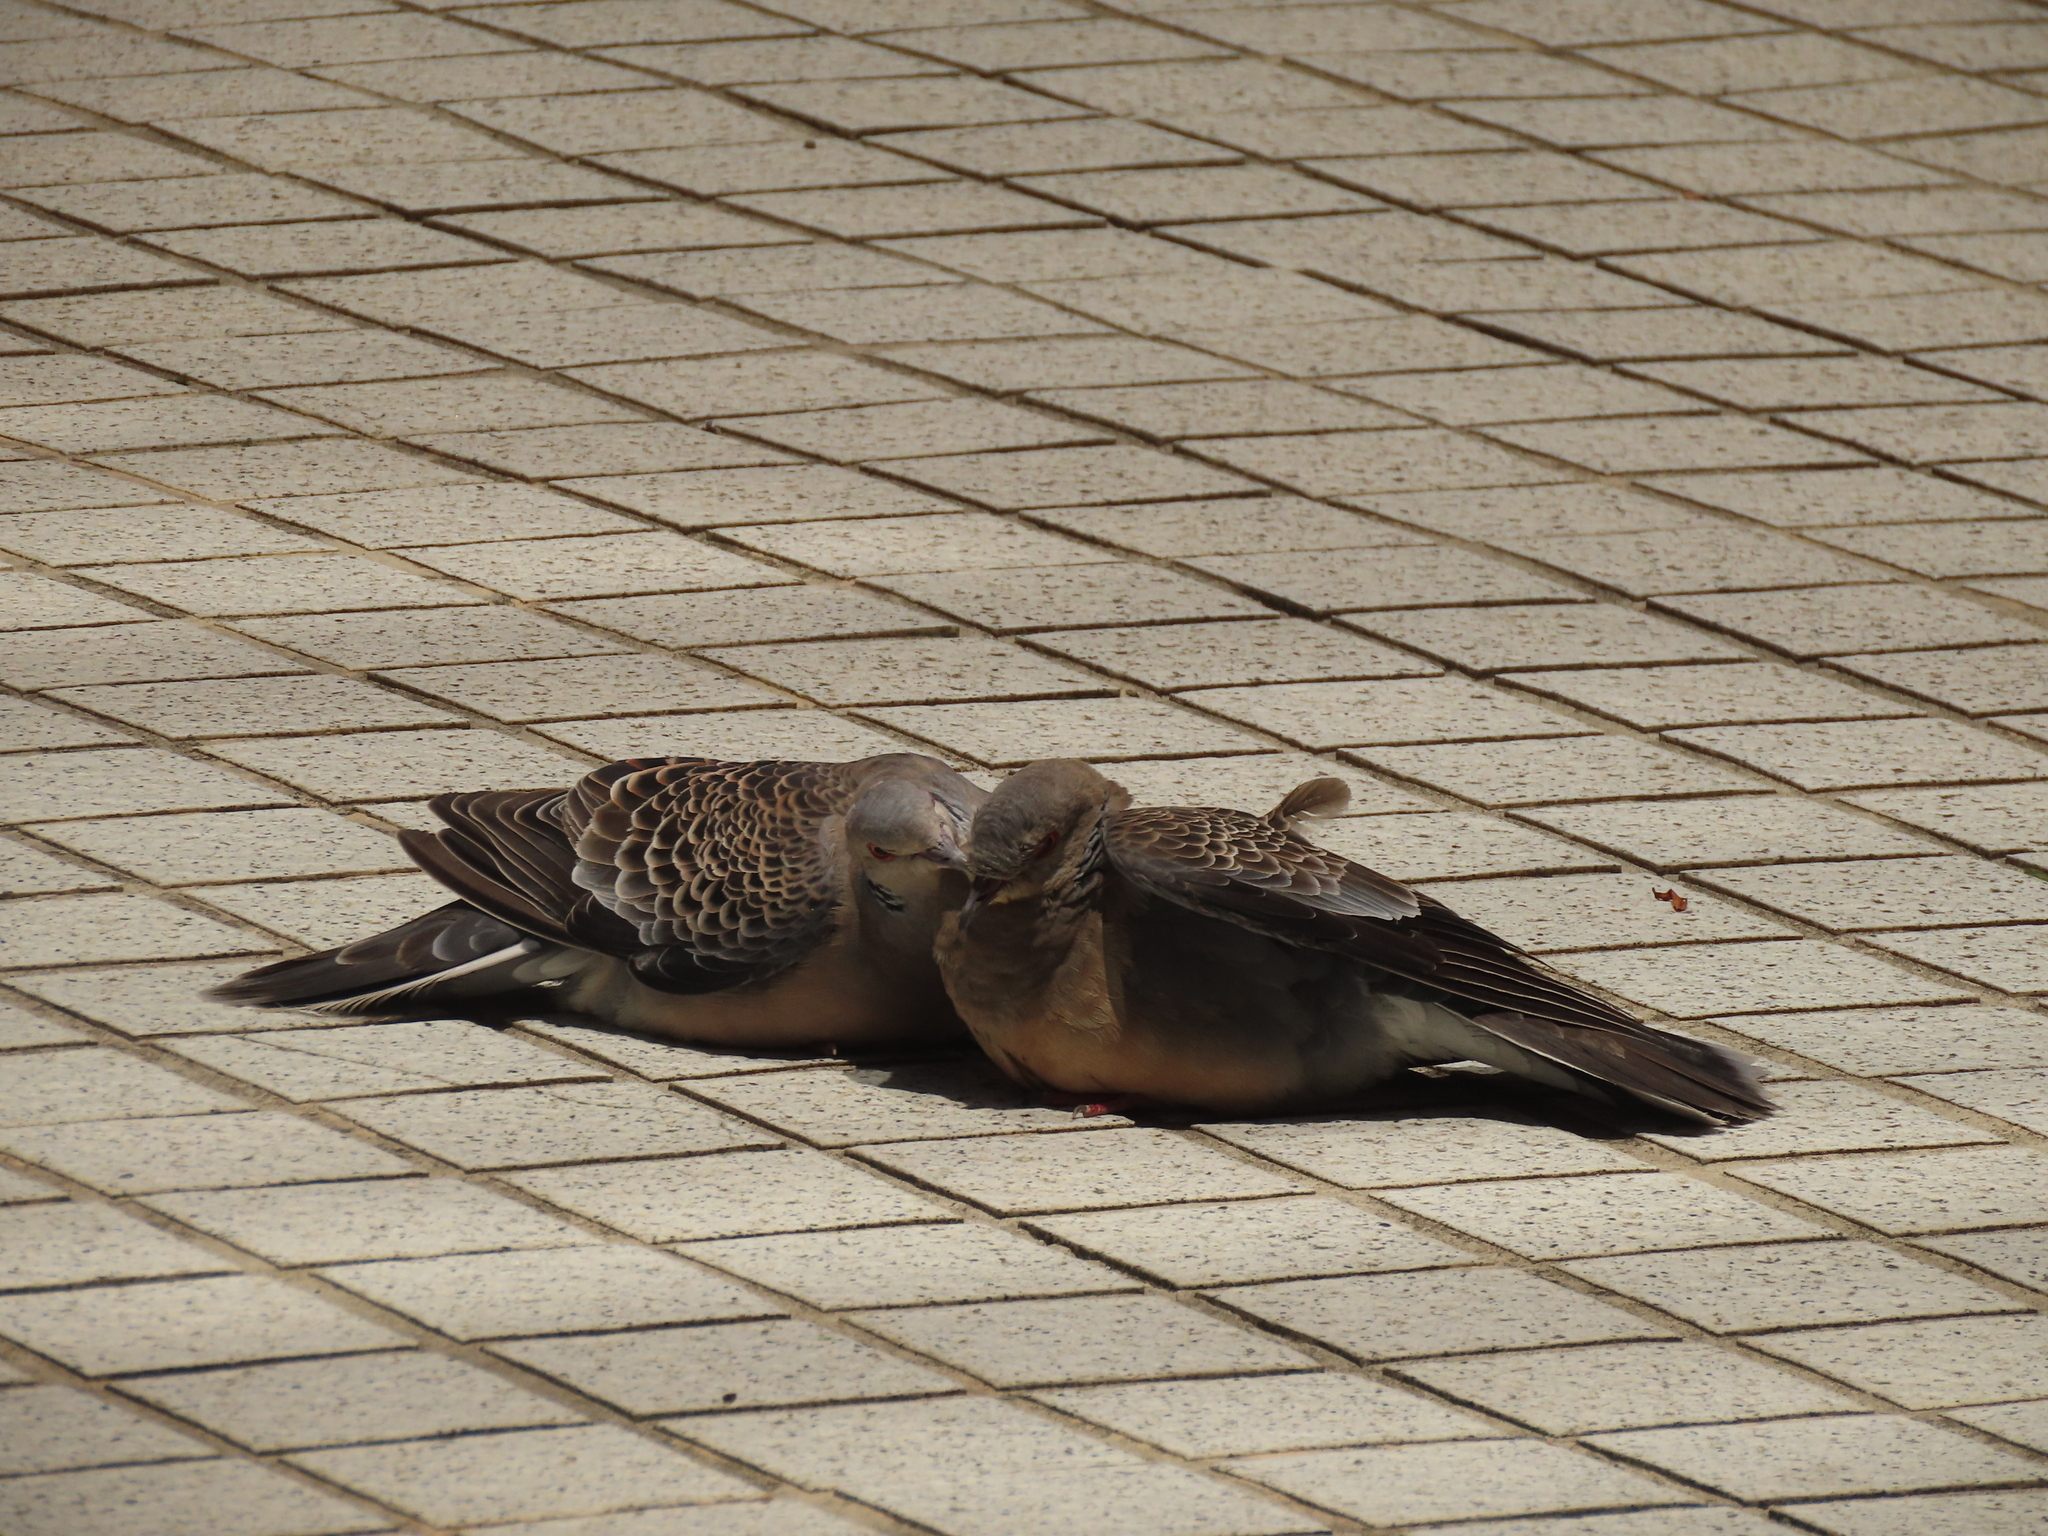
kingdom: Animalia
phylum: Chordata
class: Aves
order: Columbiformes
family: Columbidae
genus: Streptopelia
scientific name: Streptopelia orientalis
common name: Oriental turtle dove
